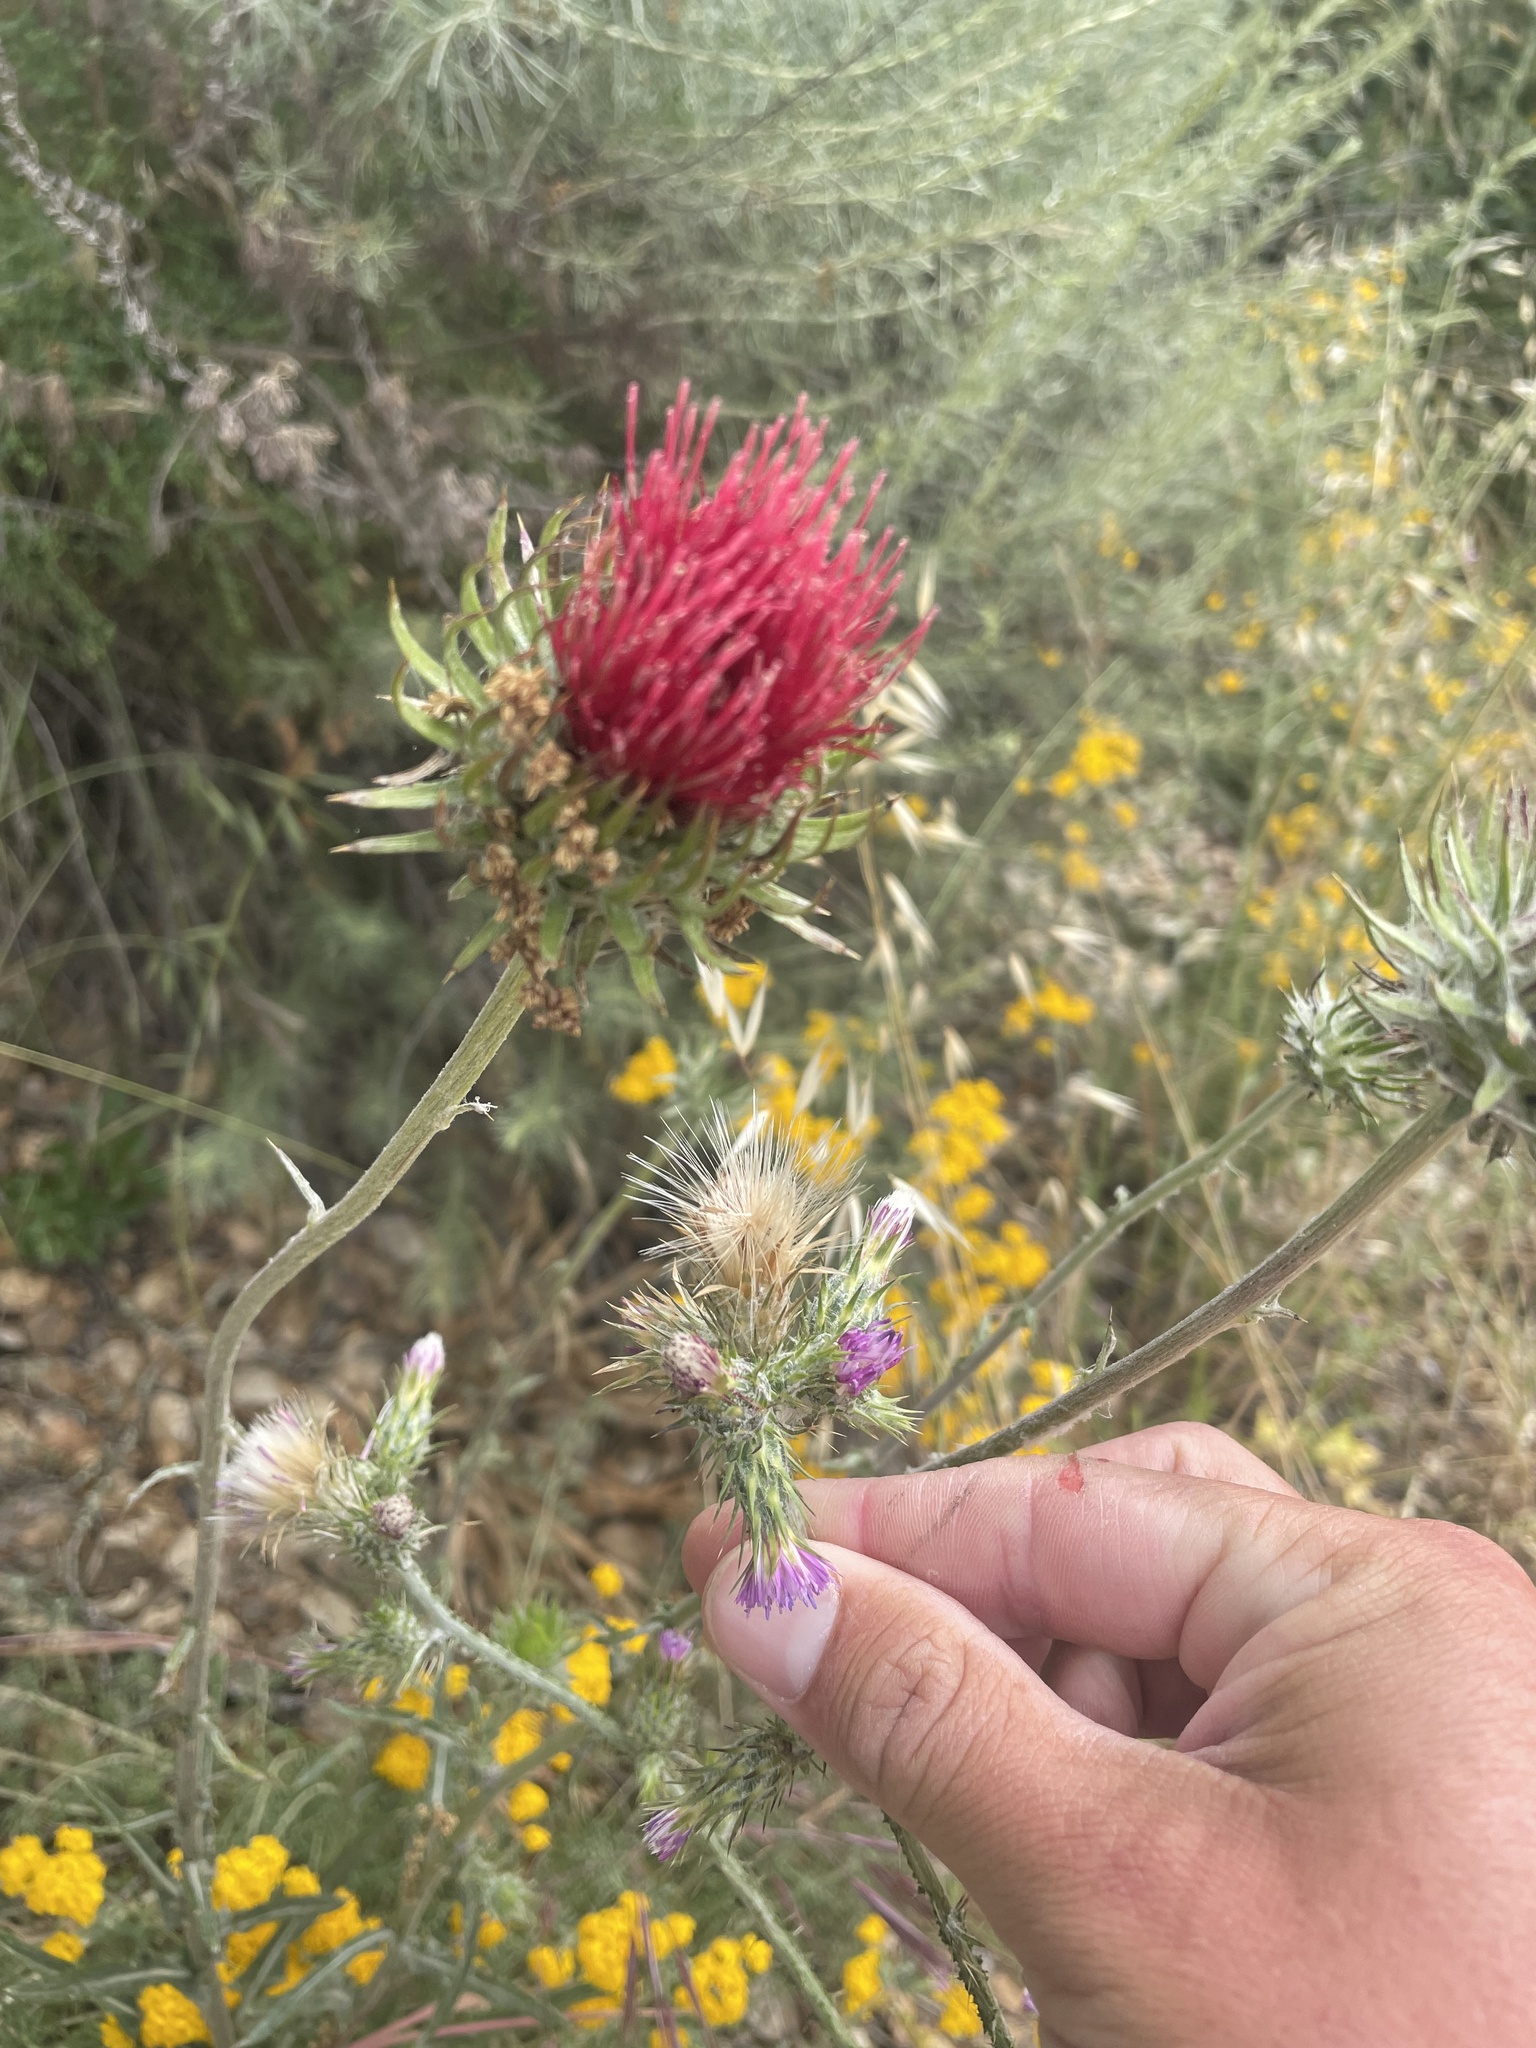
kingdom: Plantae
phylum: Tracheophyta
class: Magnoliopsida
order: Asterales
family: Asteraceae
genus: Cirsium
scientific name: Cirsium occidentale
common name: Western thistle
